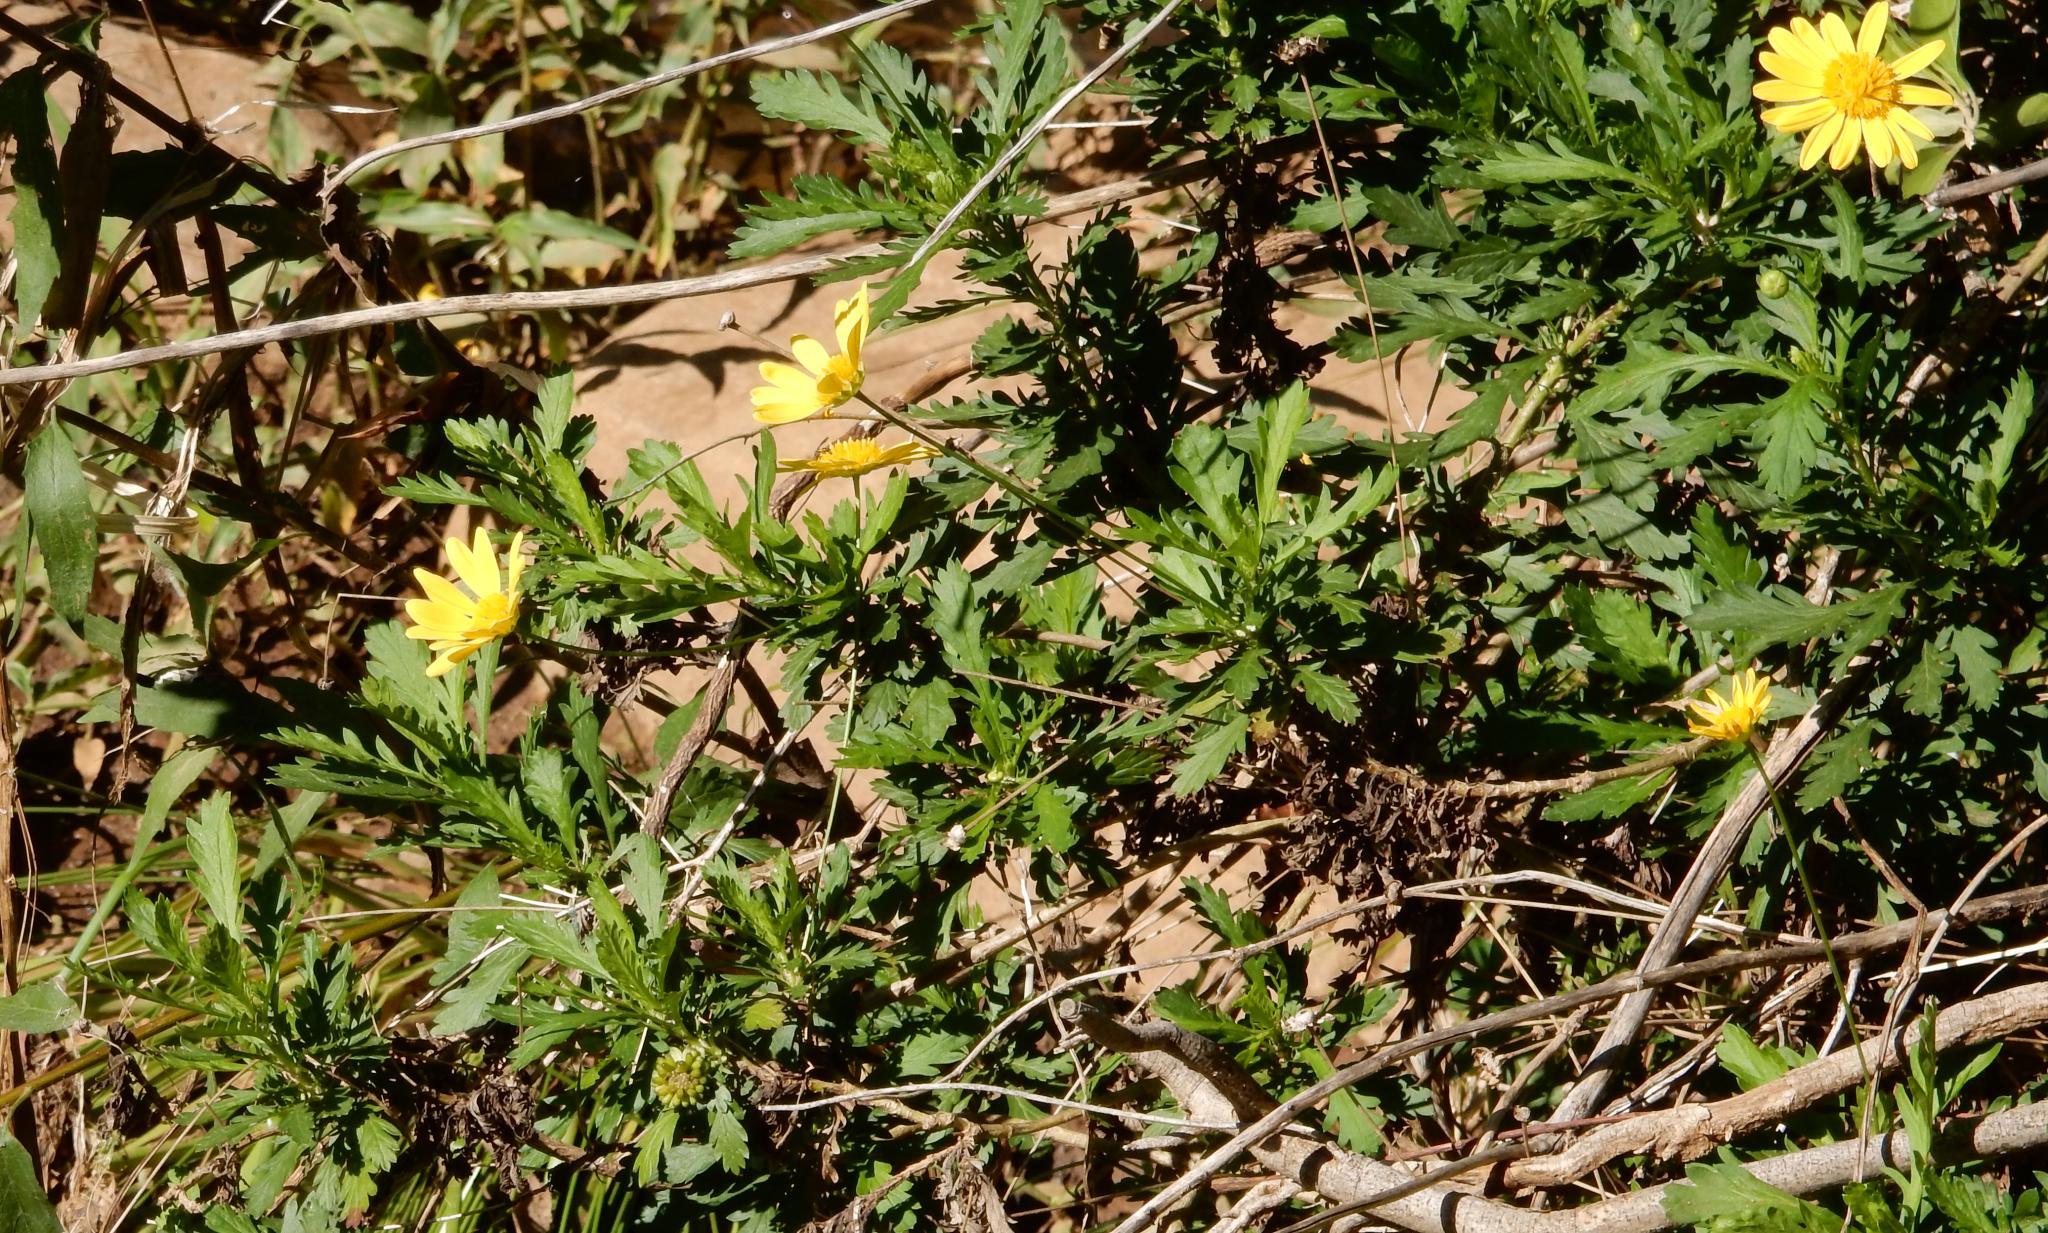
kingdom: Plantae
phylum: Tracheophyta
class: Magnoliopsida
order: Asterales
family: Asteraceae
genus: Euryops
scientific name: Euryops chrysanthemoides
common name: Bull's eye
